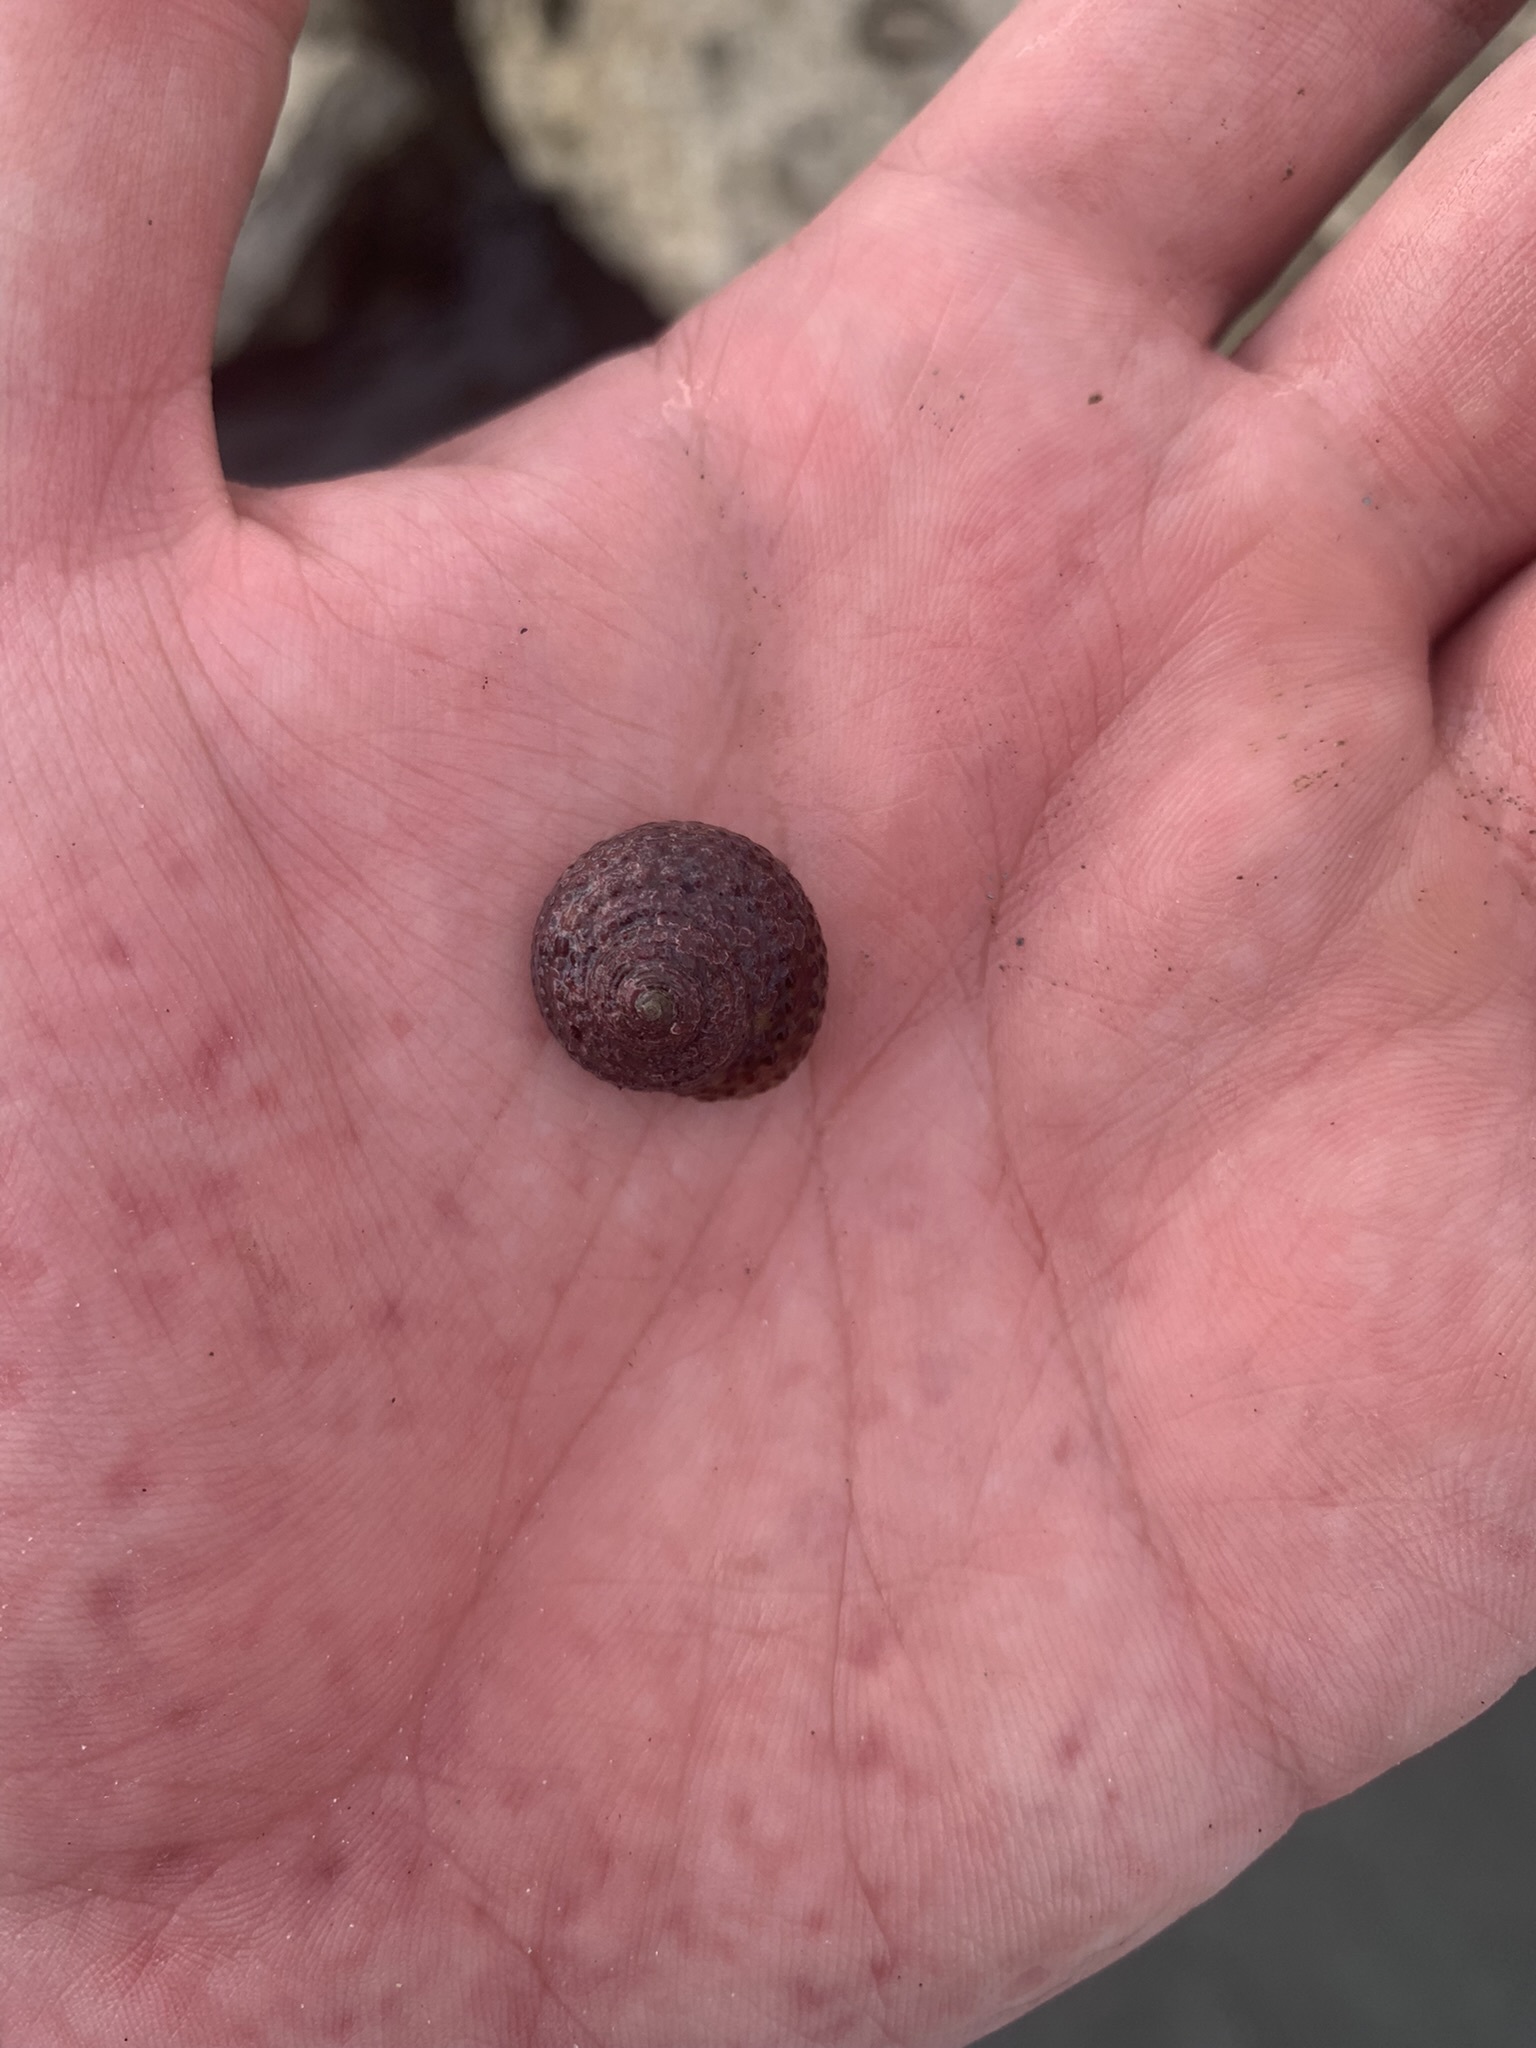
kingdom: Animalia
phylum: Mollusca
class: Gastropoda
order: Trochida
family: Tegulidae
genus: Agathistoma
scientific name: Agathistoma viridulum
